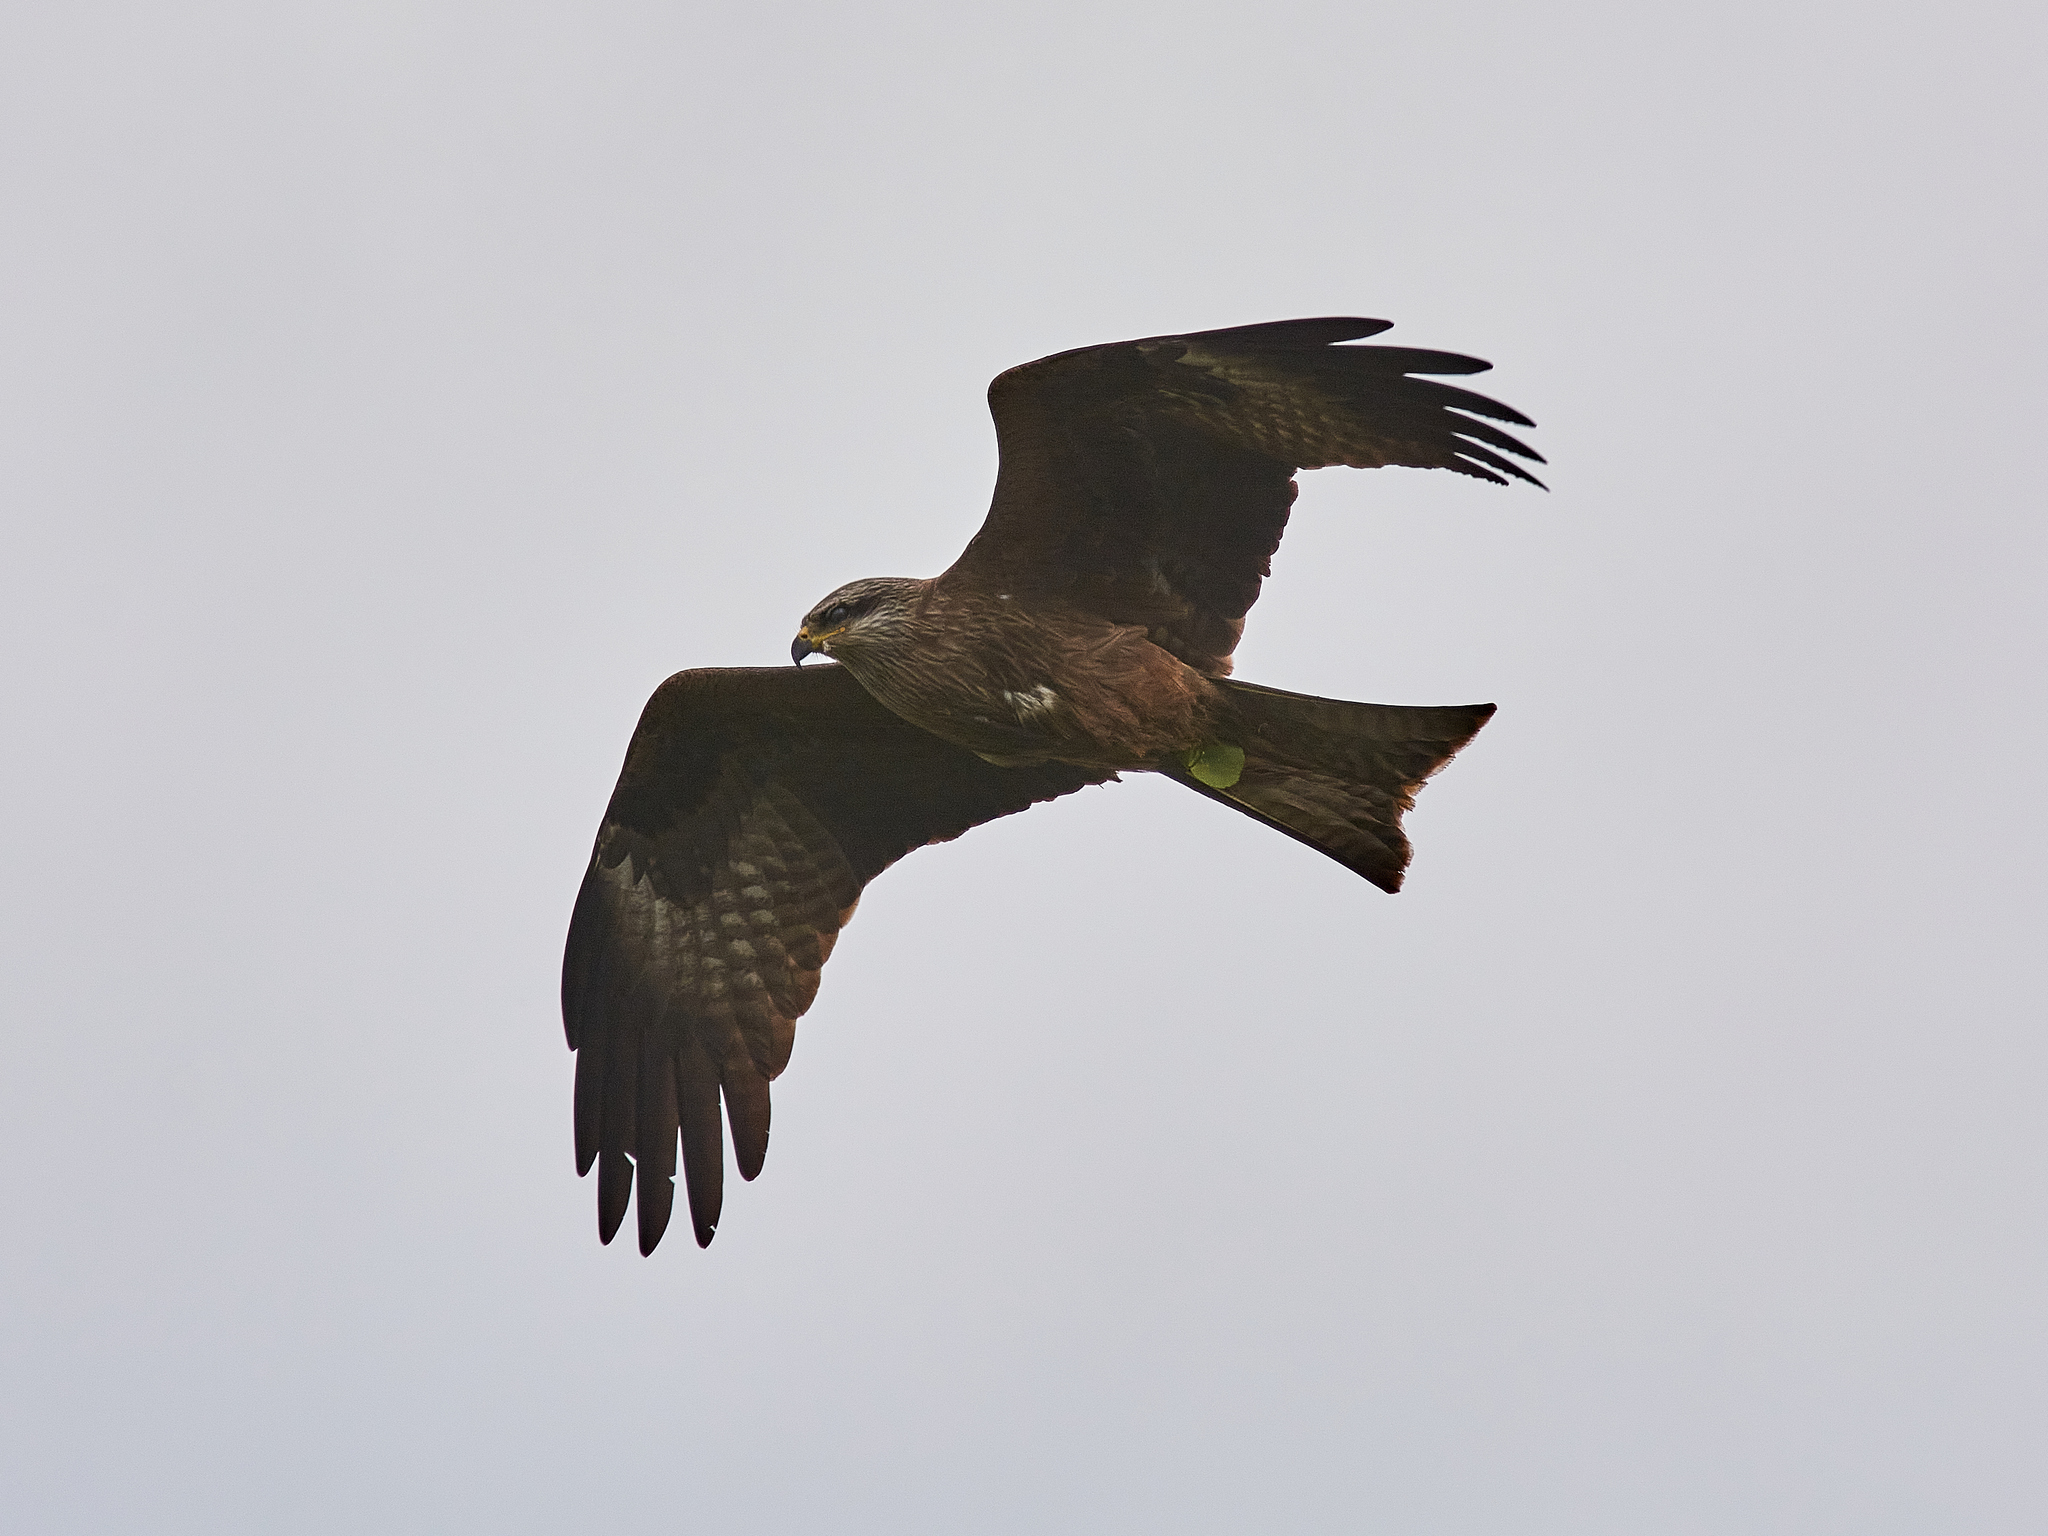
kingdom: Animalia
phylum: Chordata
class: Aves
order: Accipitriformes
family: Accipitridae
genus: Milvus
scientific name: Milvus migrans
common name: Black kite
